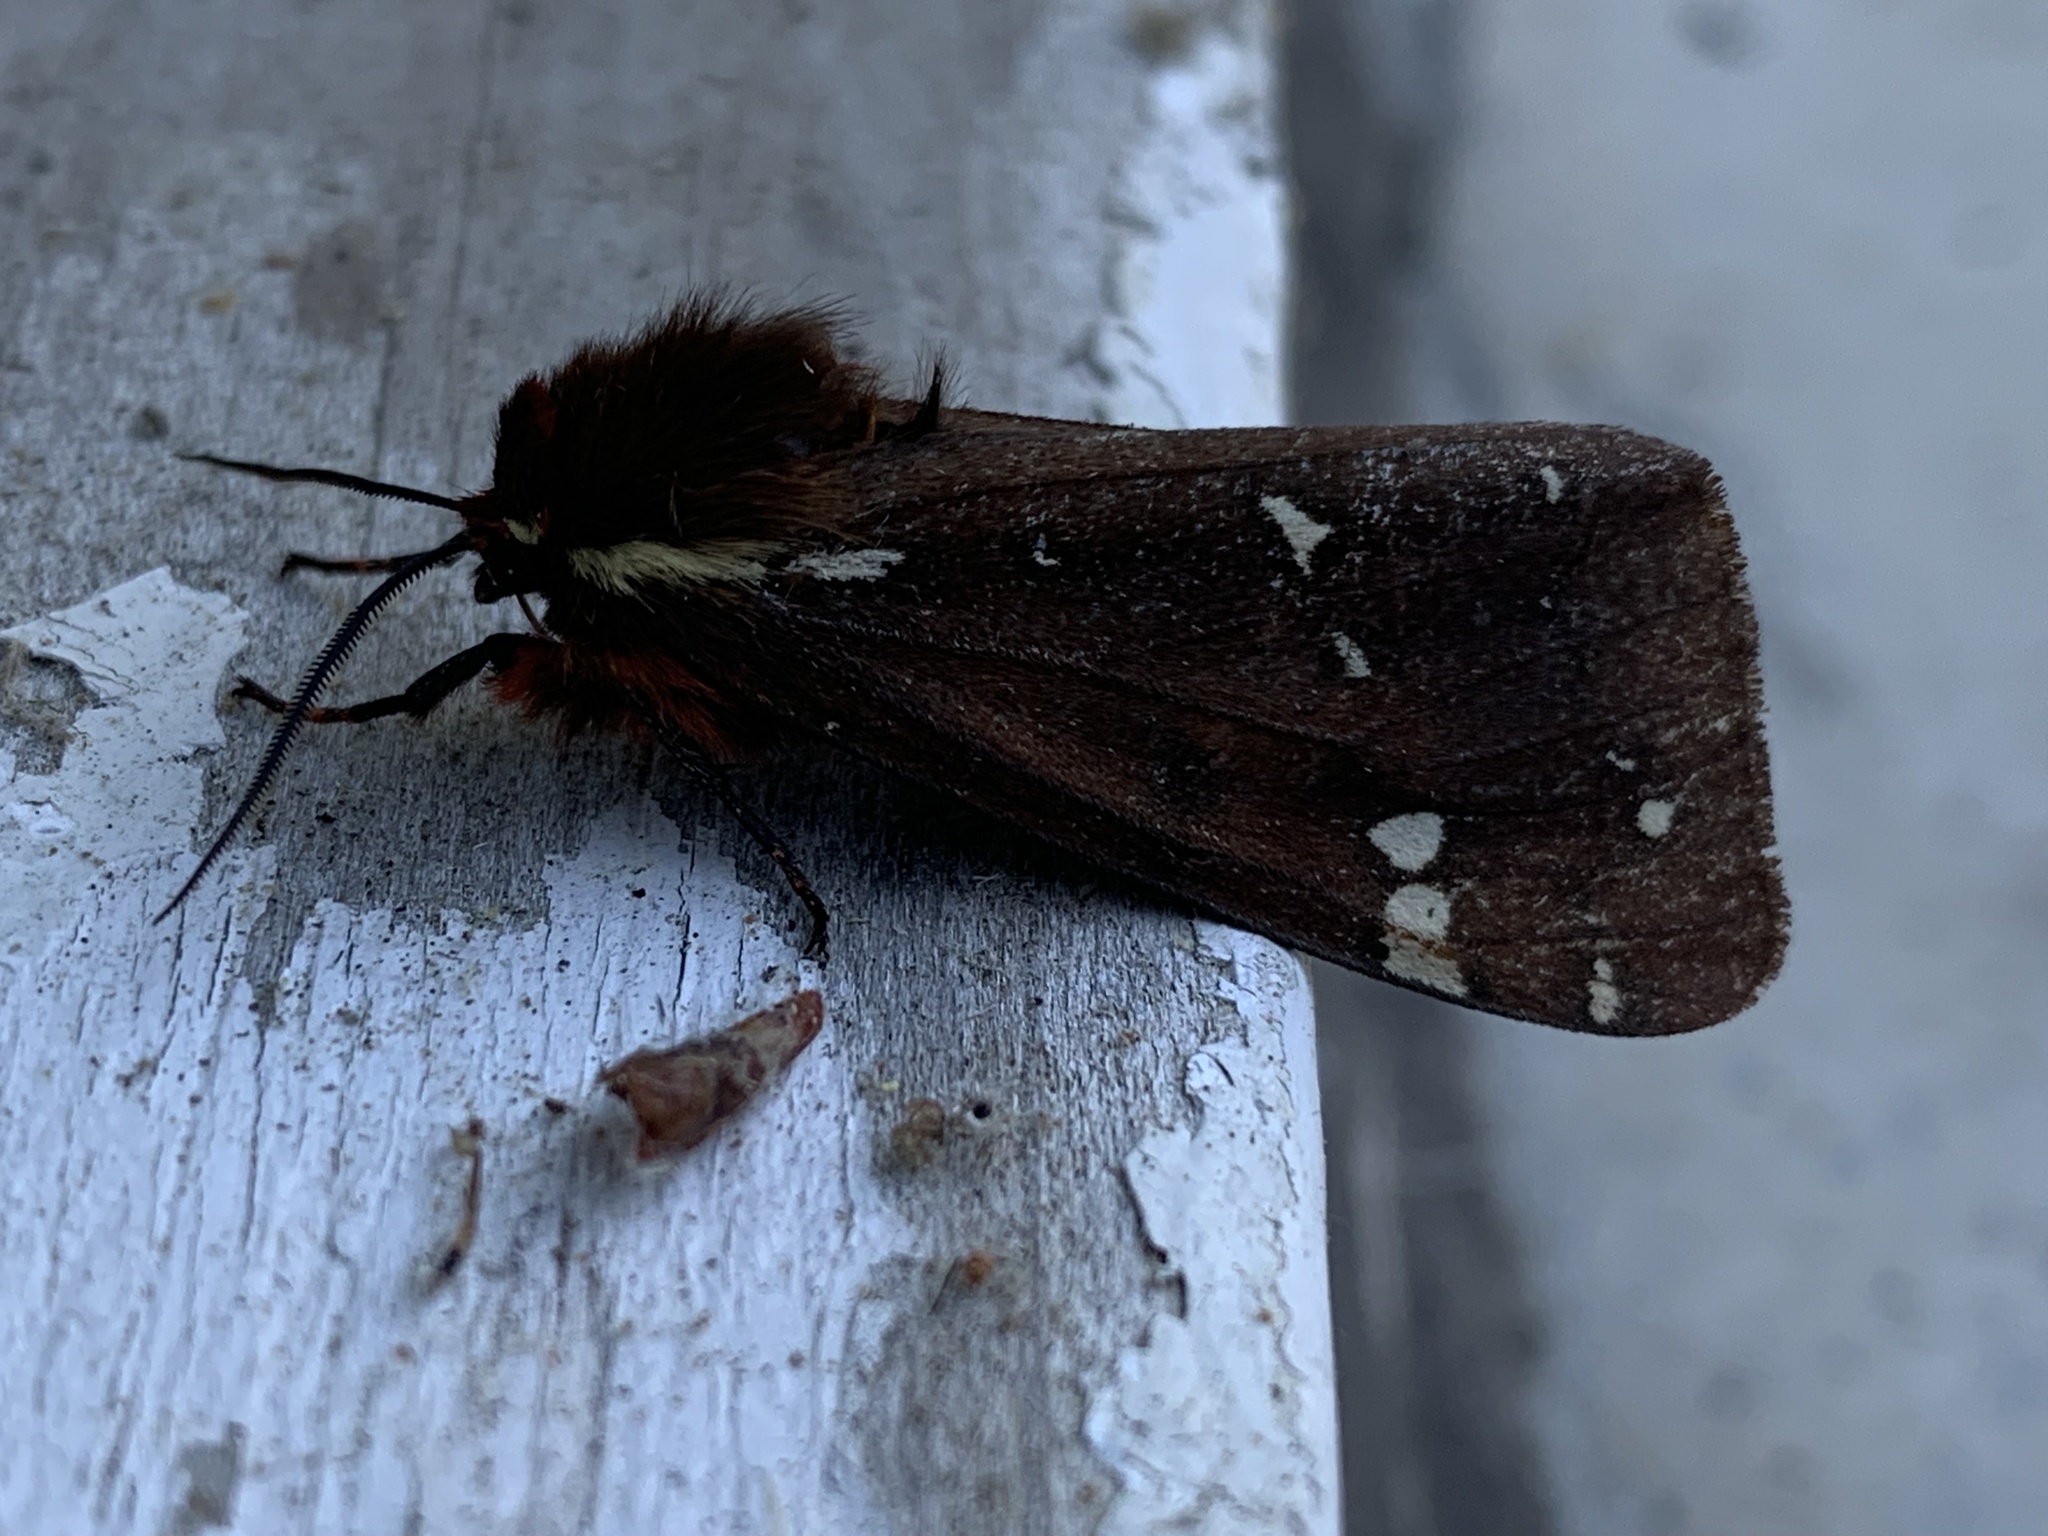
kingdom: Animalia
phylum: Arthropoda
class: Insecta
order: Lepidoptera
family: Erebidae
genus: Arctia
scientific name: Arctia parthenos
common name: St. lawrence tiger moth
